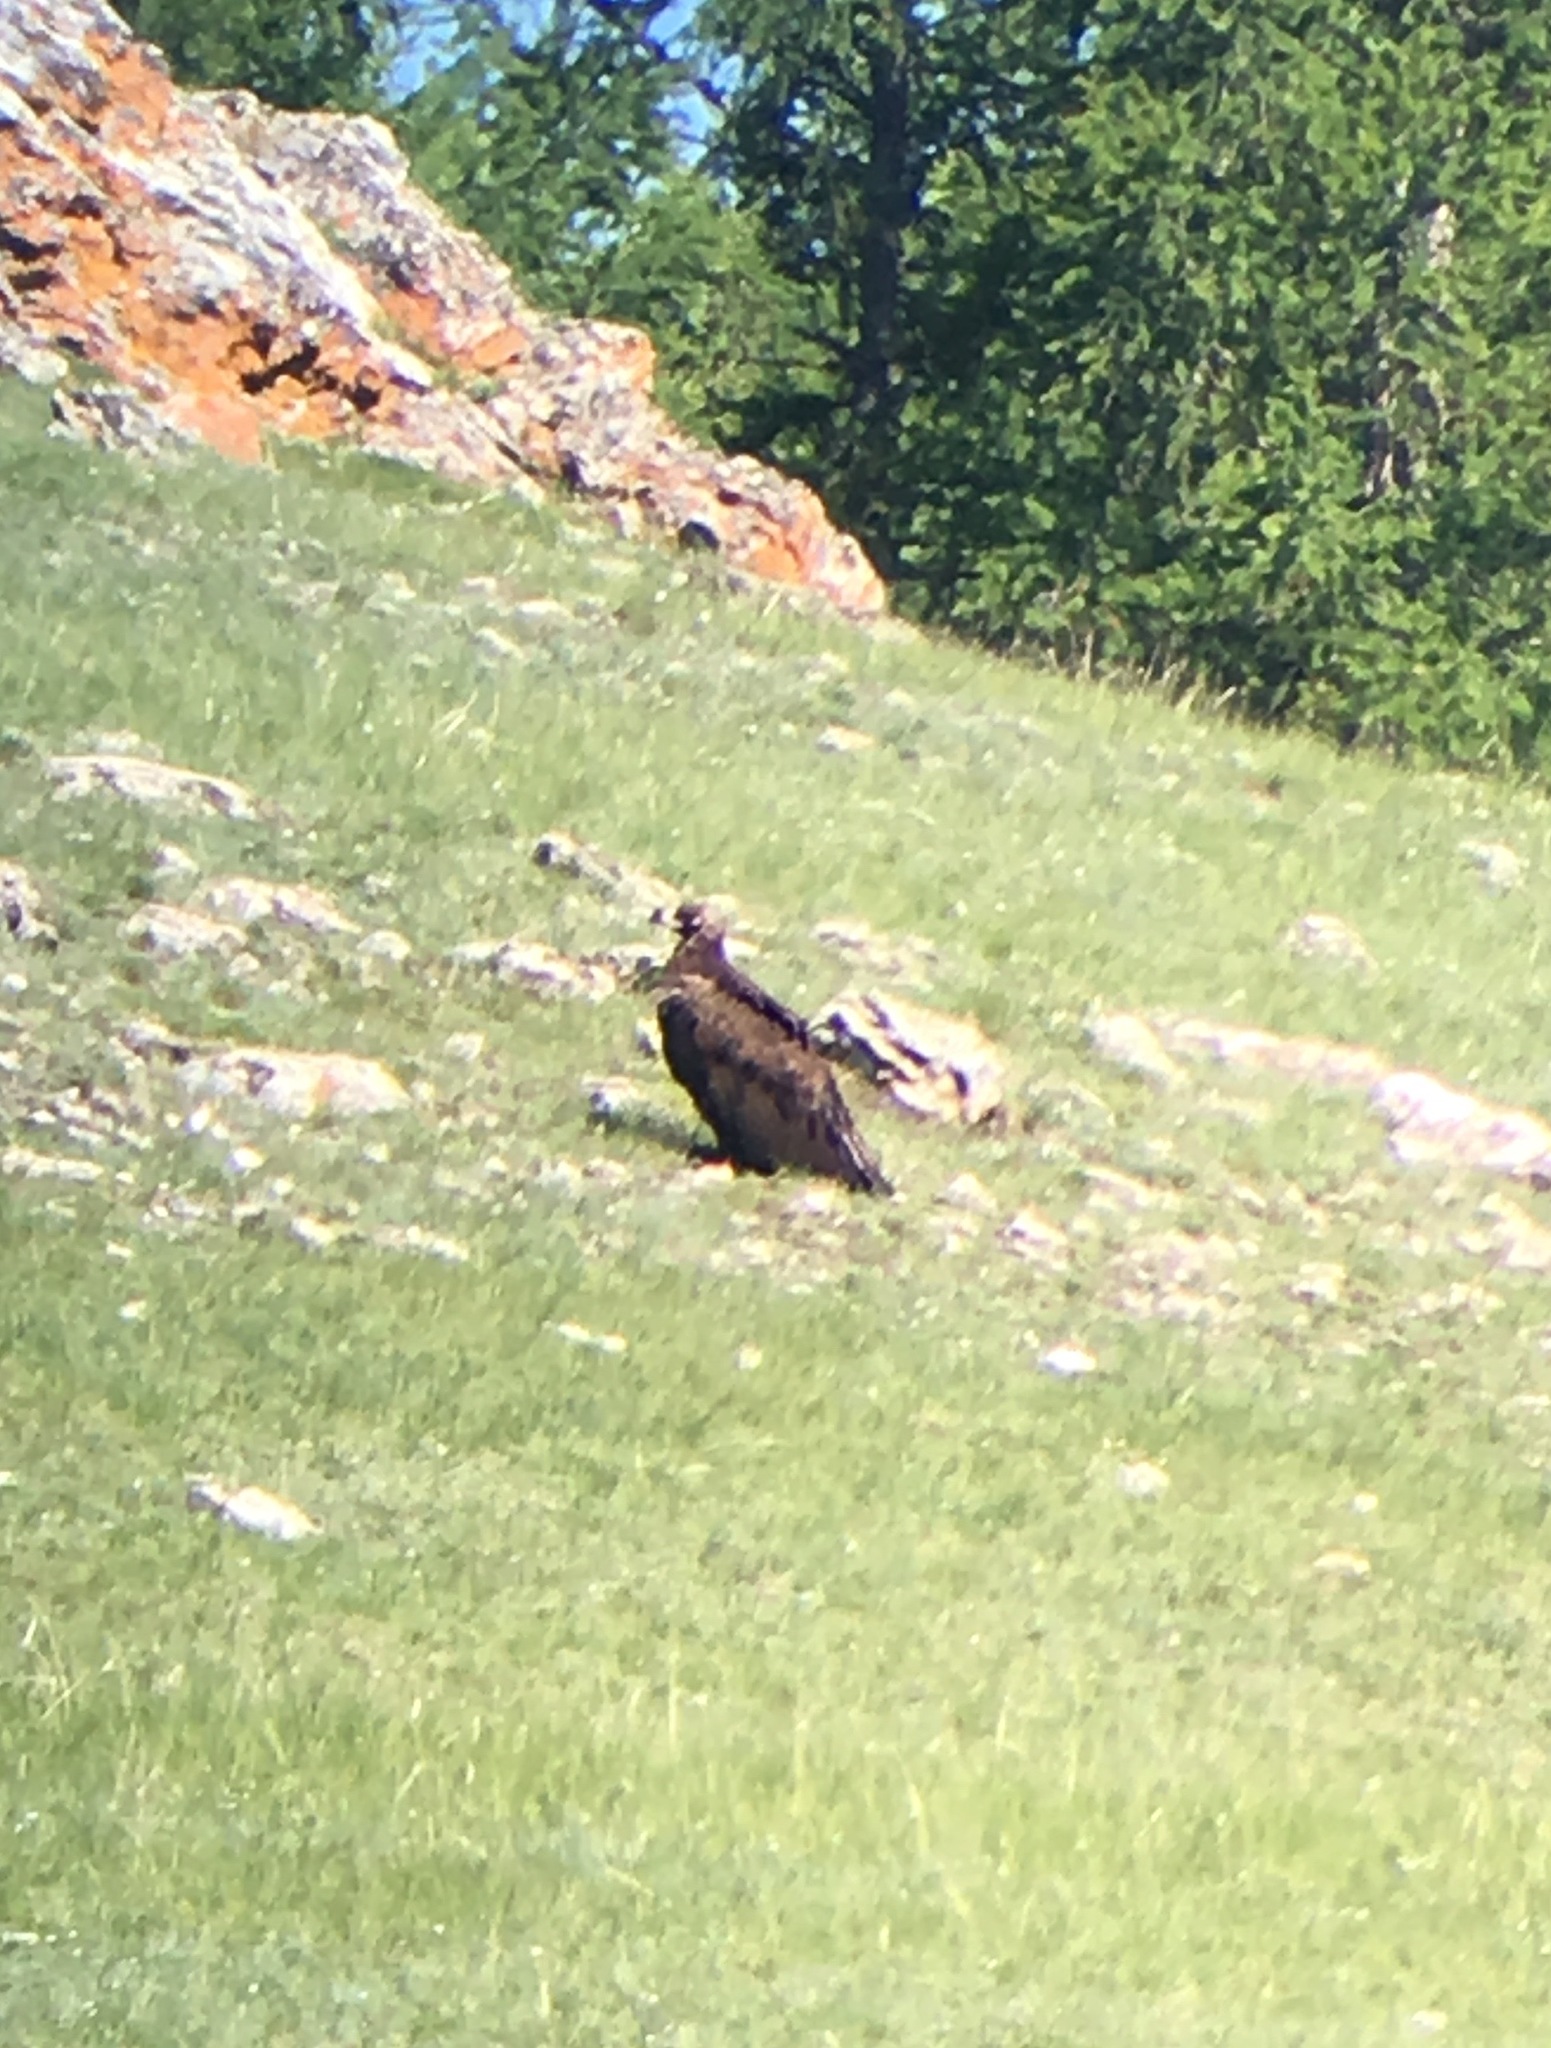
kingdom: Animalia
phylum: Chordata
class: Aves
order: Accipitriformes
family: Accipitridae
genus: Aegypius
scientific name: Aegypius monachus
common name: Cinereous vulture
